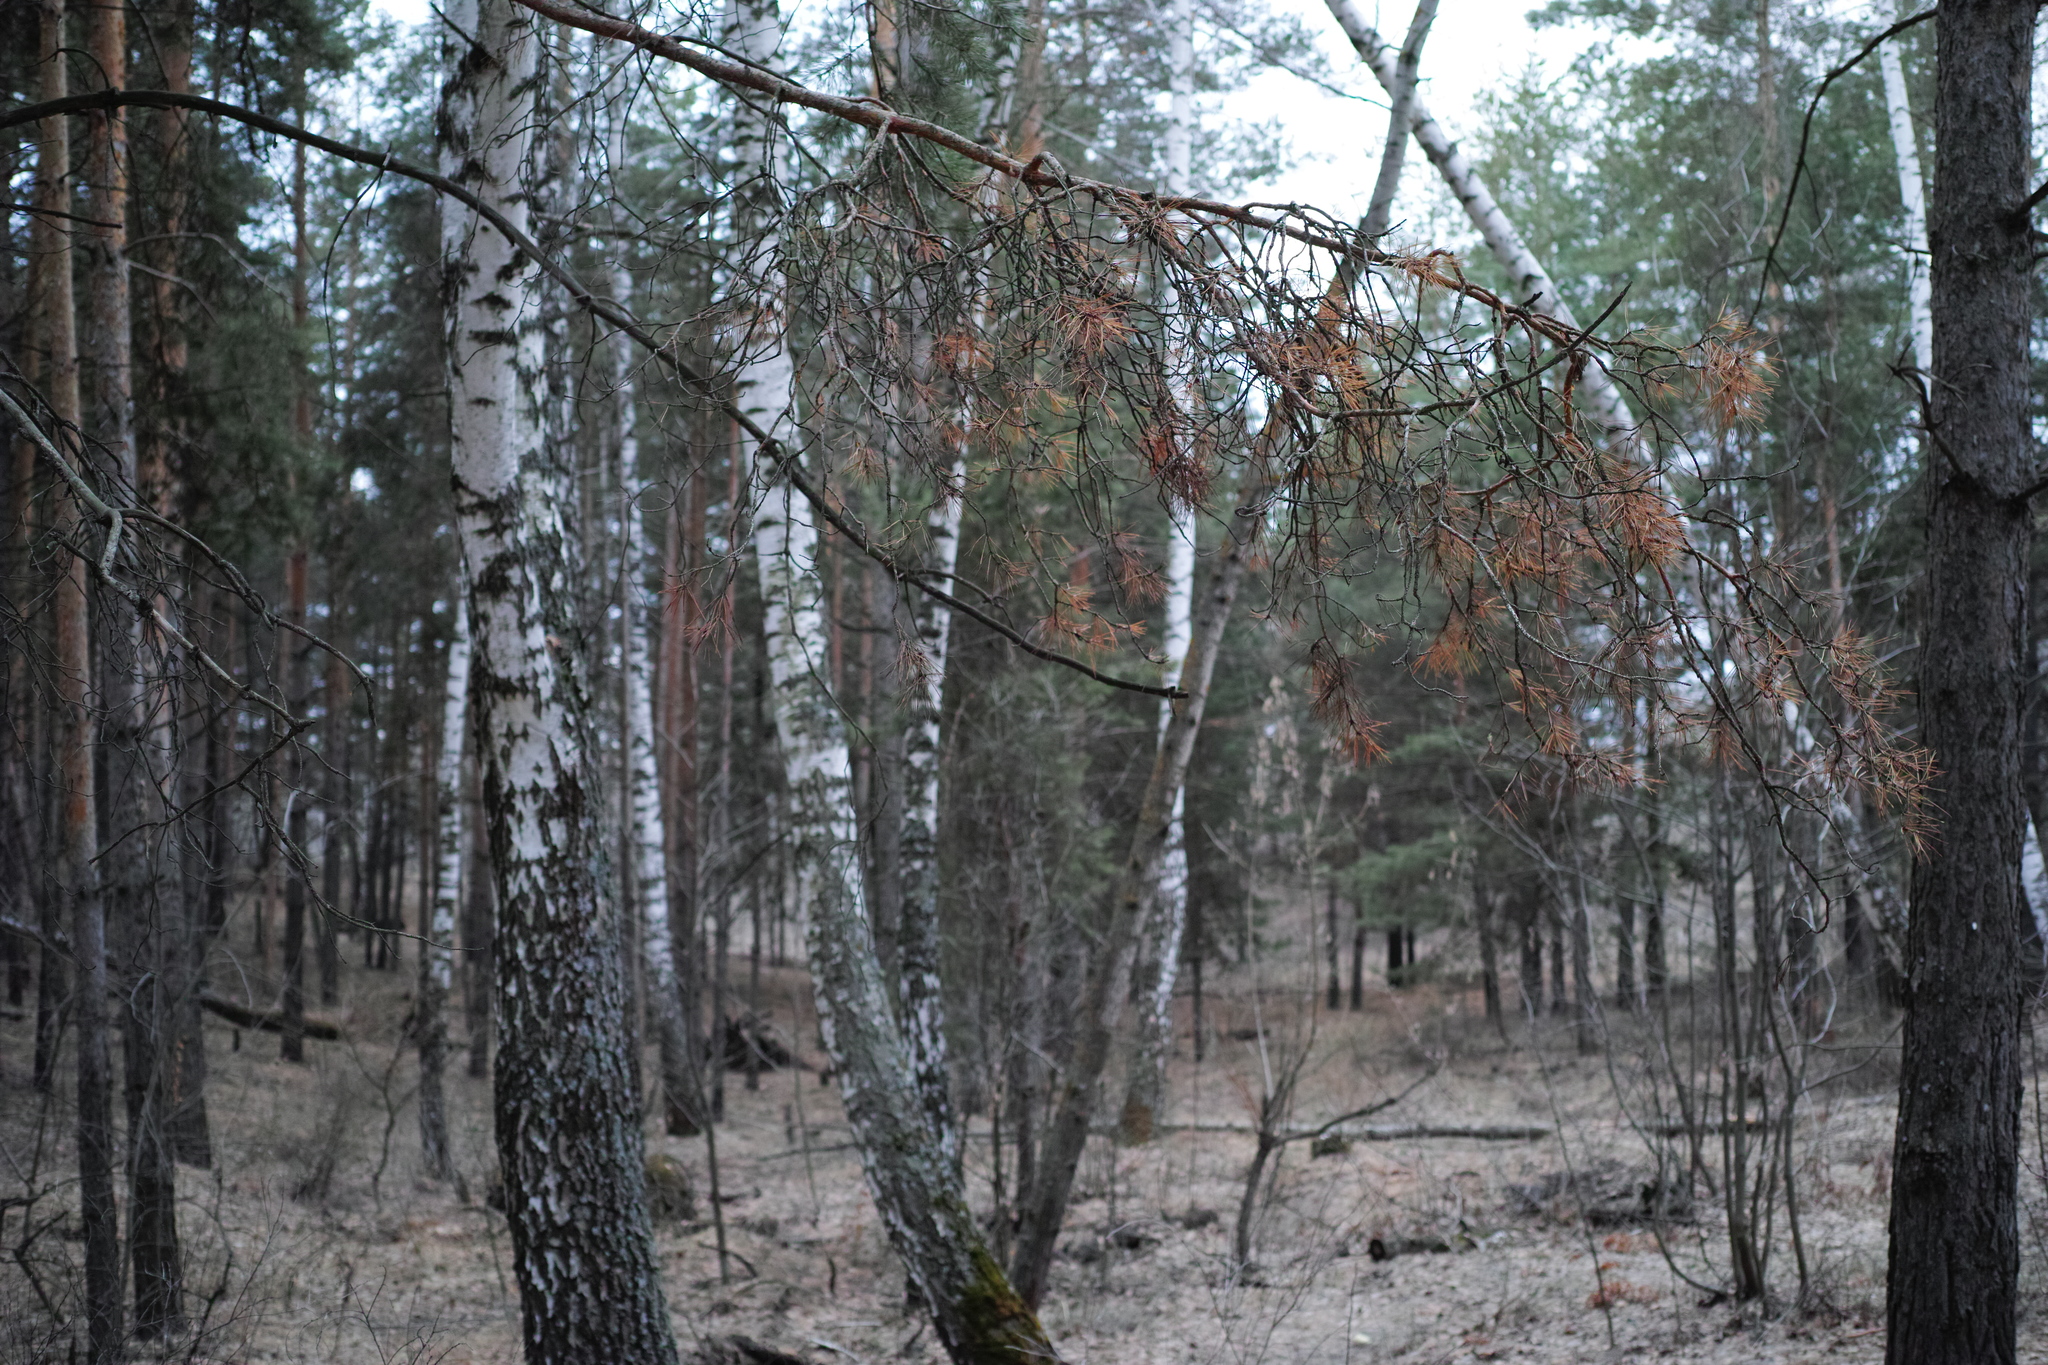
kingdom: Plantae
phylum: Tracheophyta
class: Pinopsida
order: Pinales
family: Pinaceae
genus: Pinus
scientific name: Pinus sylvestris
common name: Scots pine
